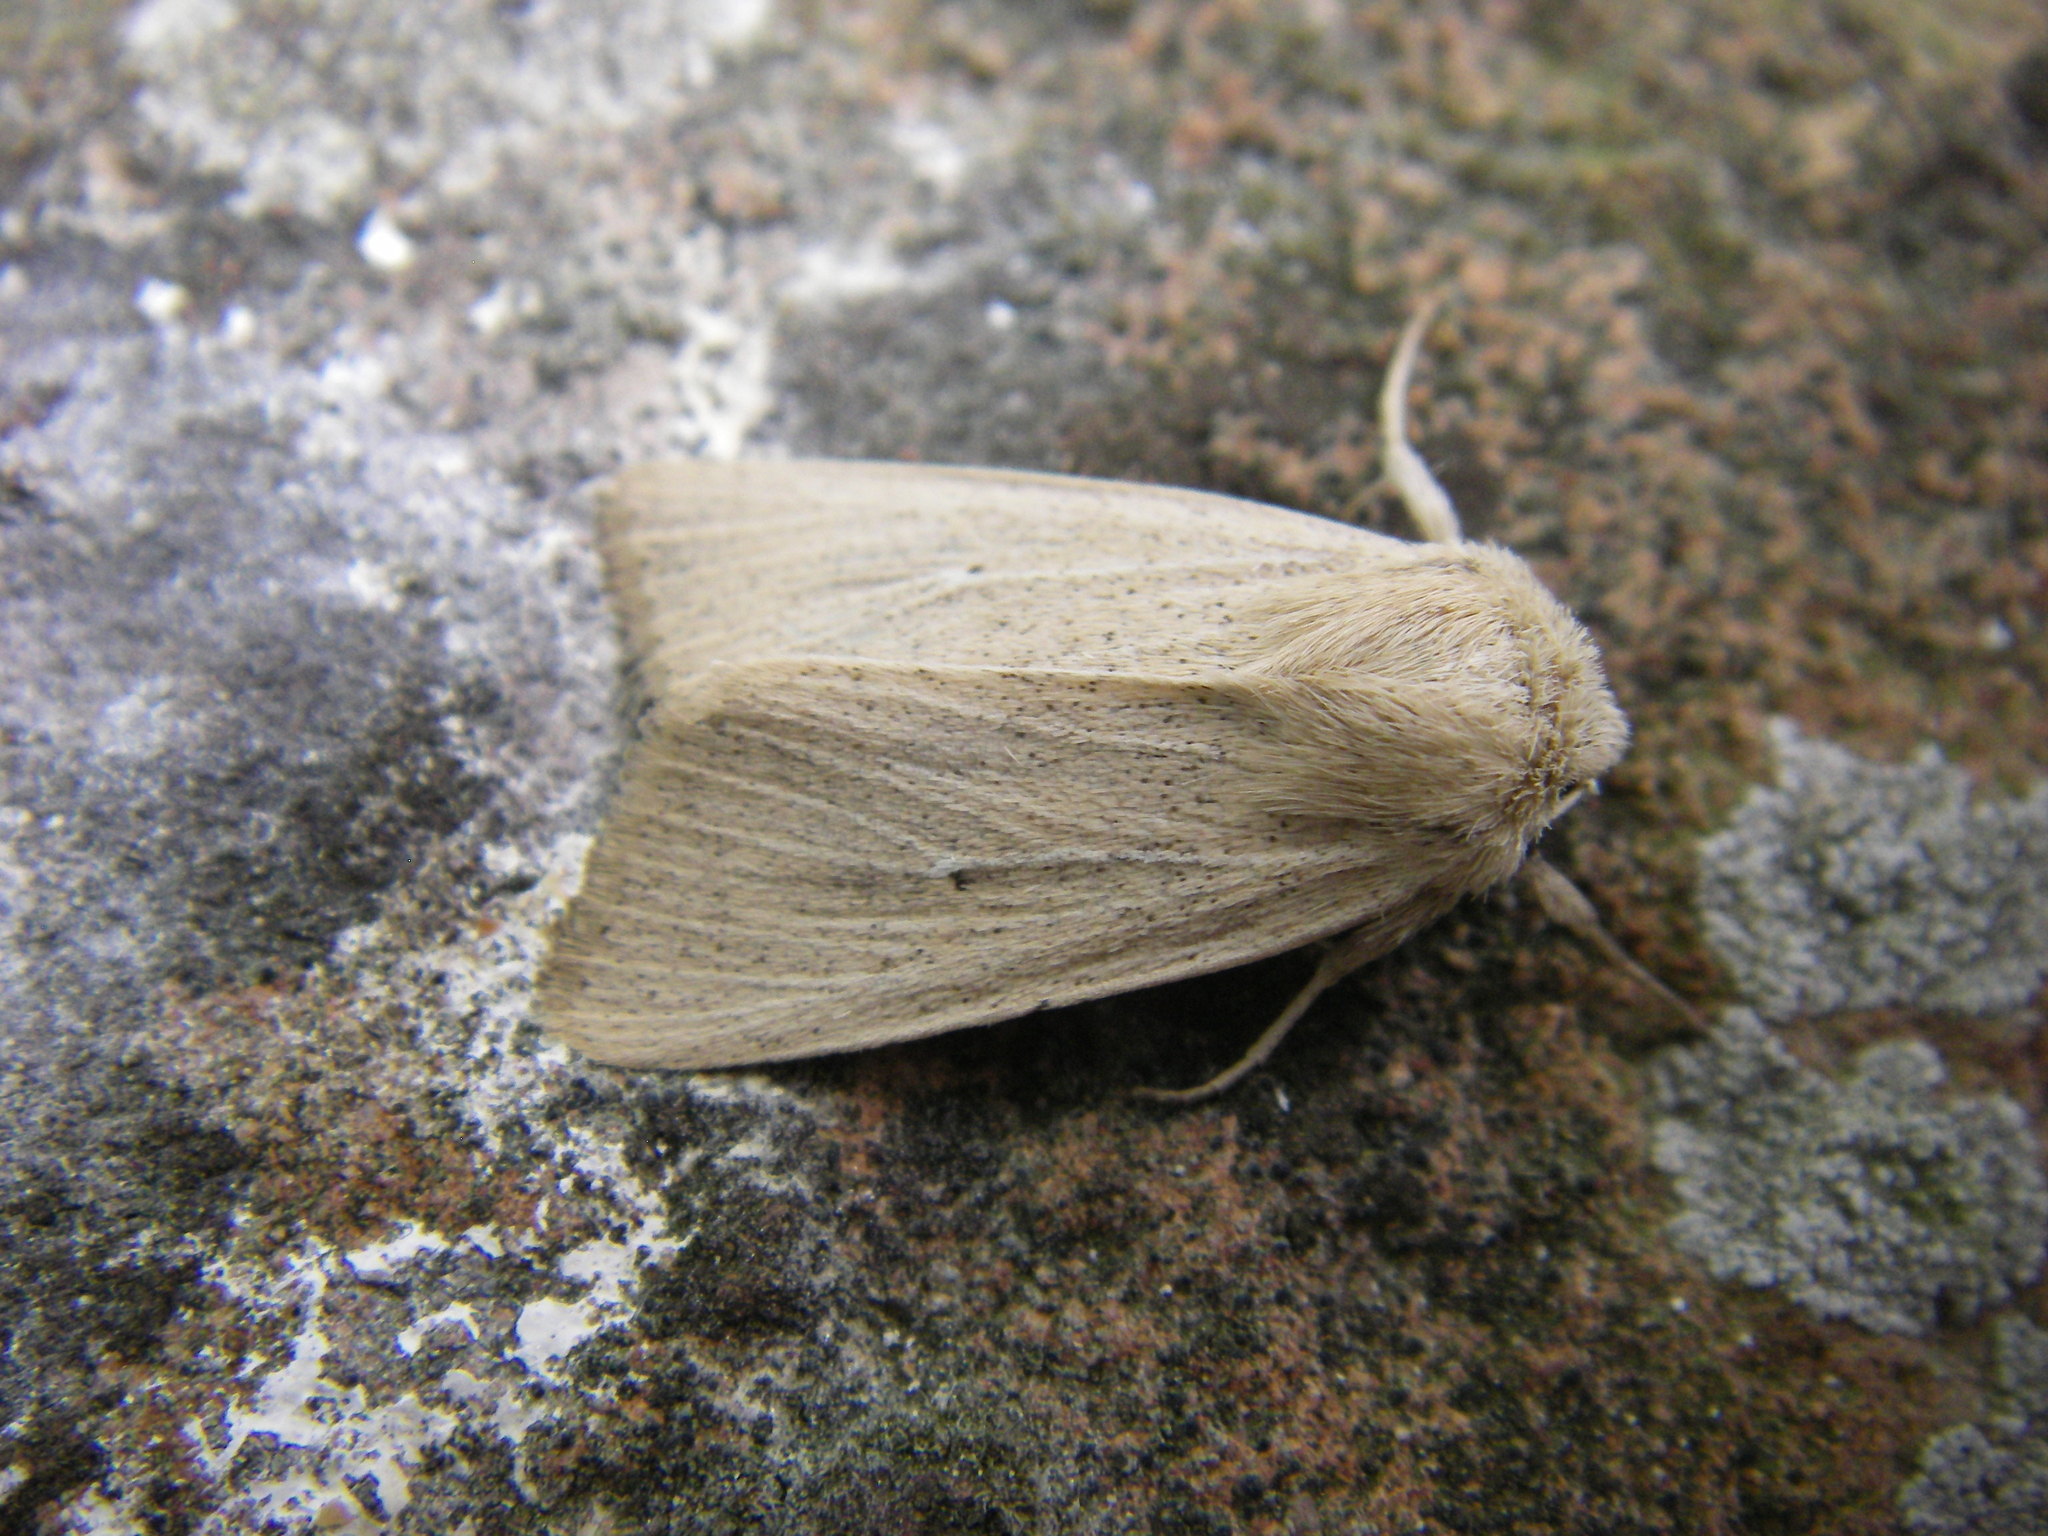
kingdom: Animalia
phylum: Arthropoda
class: Insecta
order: Lepidoptera
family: Noctuidae
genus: Mythimna
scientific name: Mythimna sicula
